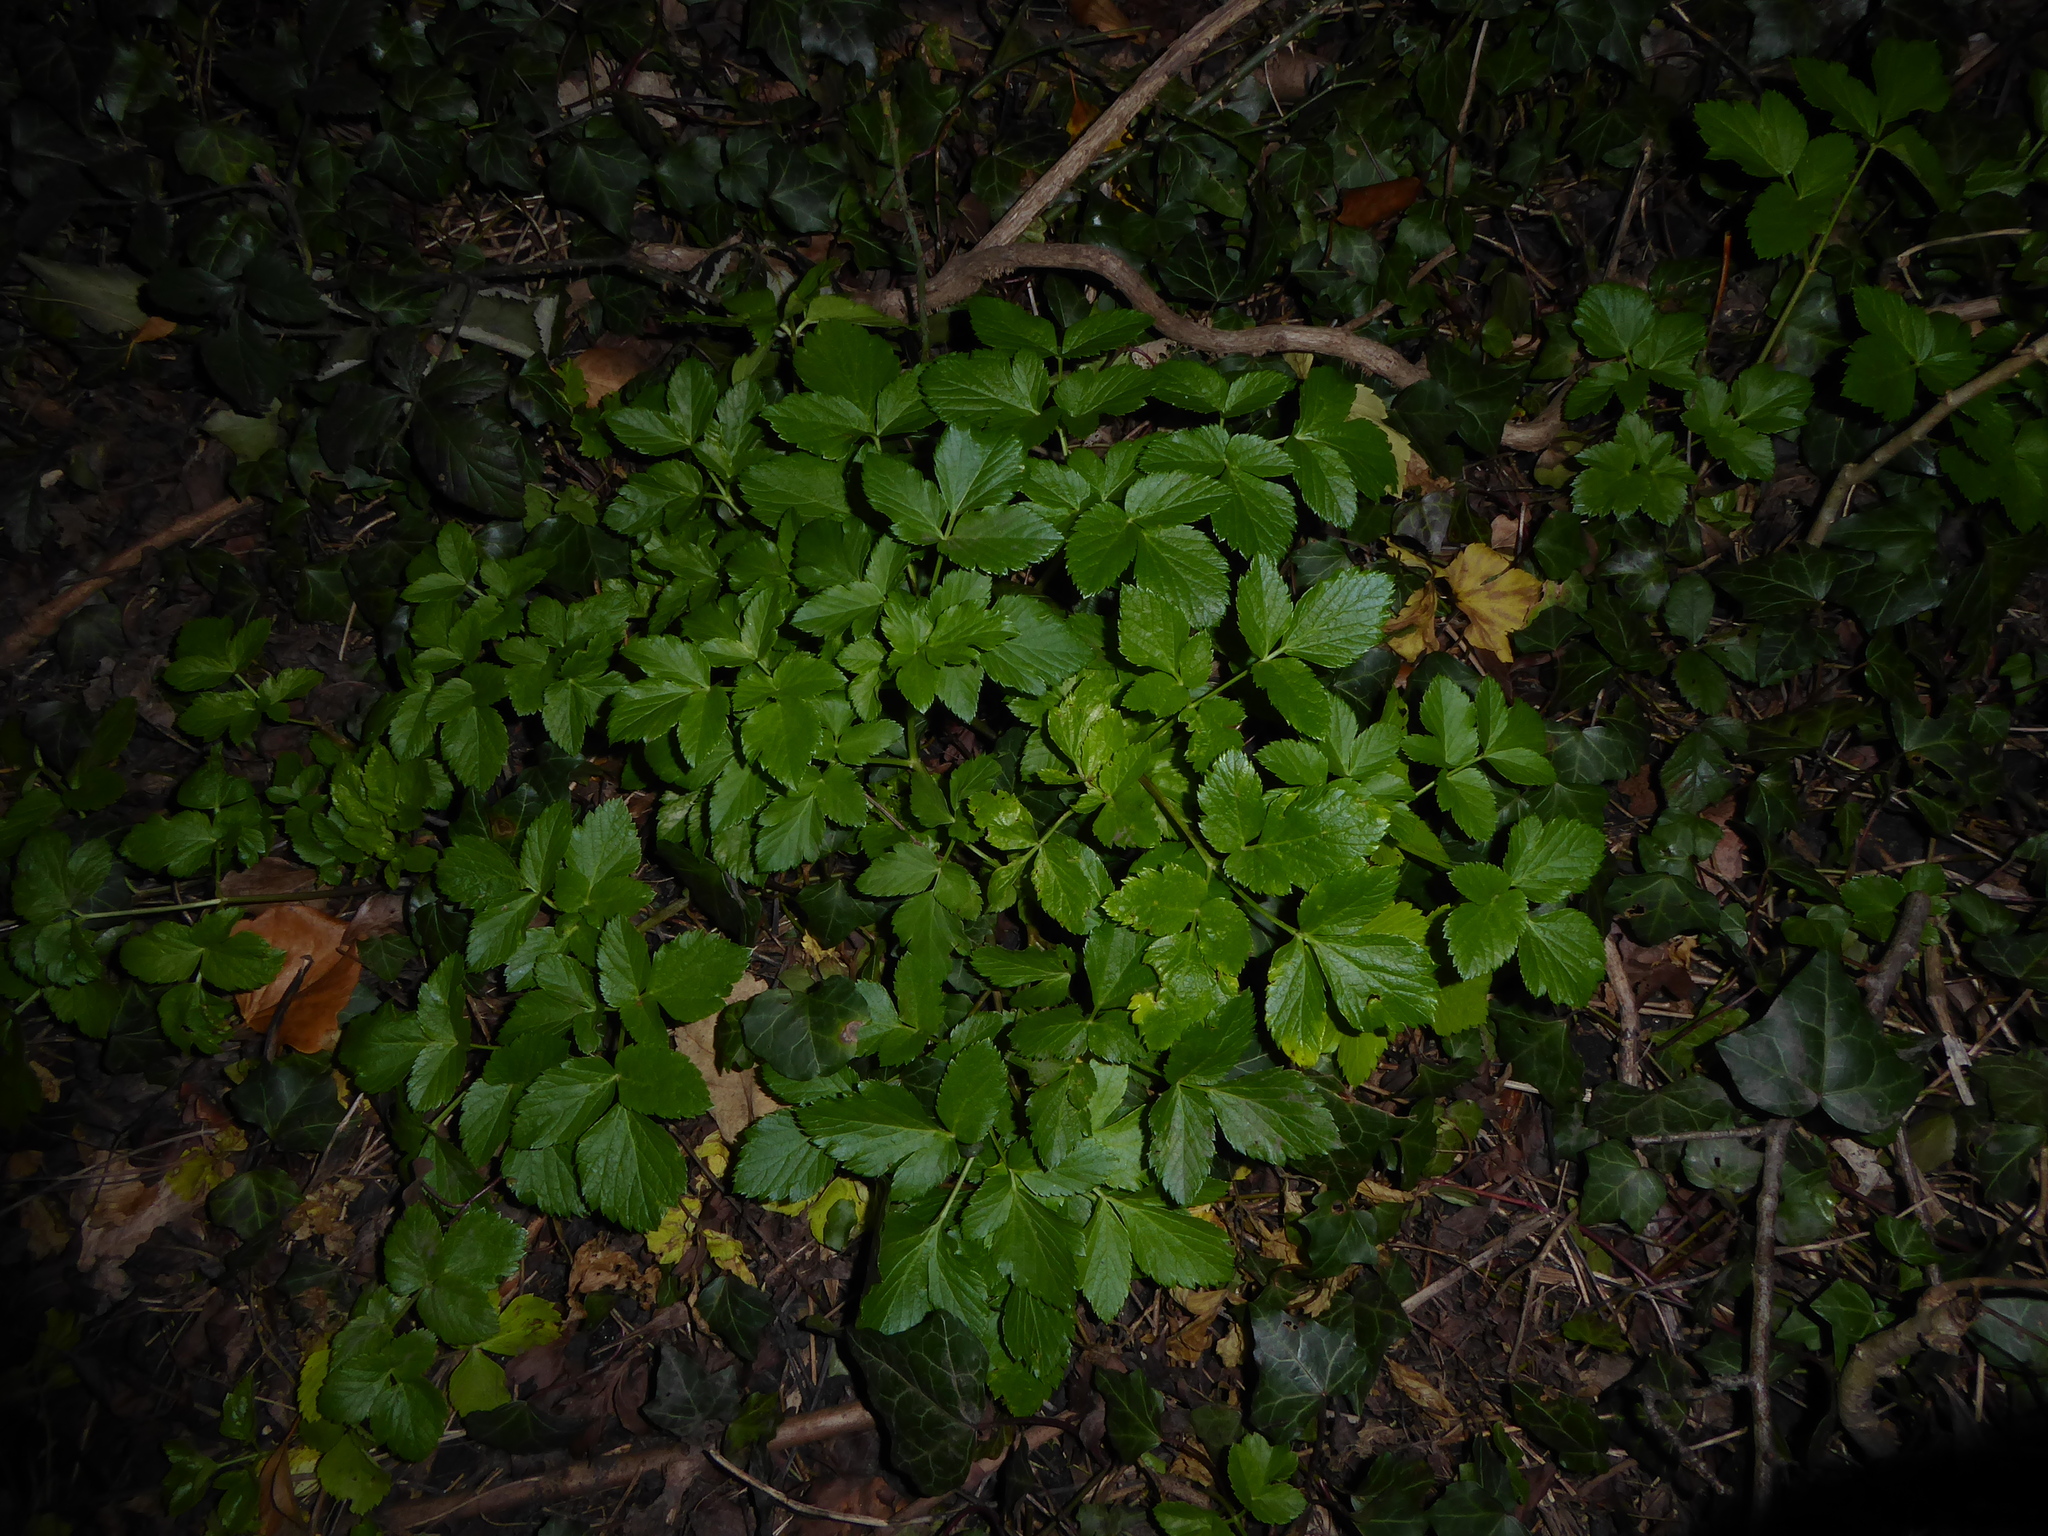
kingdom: Plantae
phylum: Tracheophyta
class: Magnoliopsida
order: Apiales
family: Apiaceae
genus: Smyrnium
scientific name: Smyrnium olusatrum
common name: Alexanders
